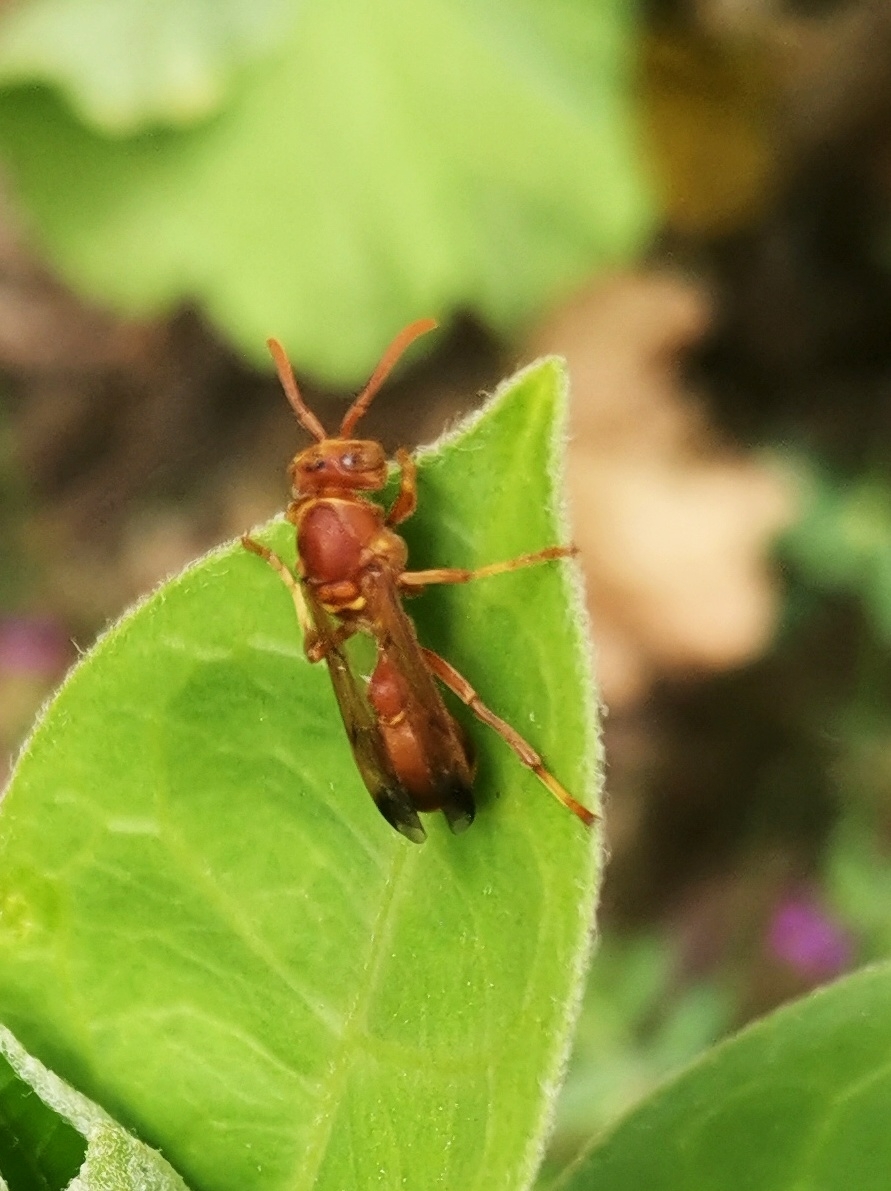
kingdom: Animalia
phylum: Arthropoda
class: Insecta
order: Hymenoptera
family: Vespidae
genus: Ropalidia
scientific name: Ropalidia marginata
